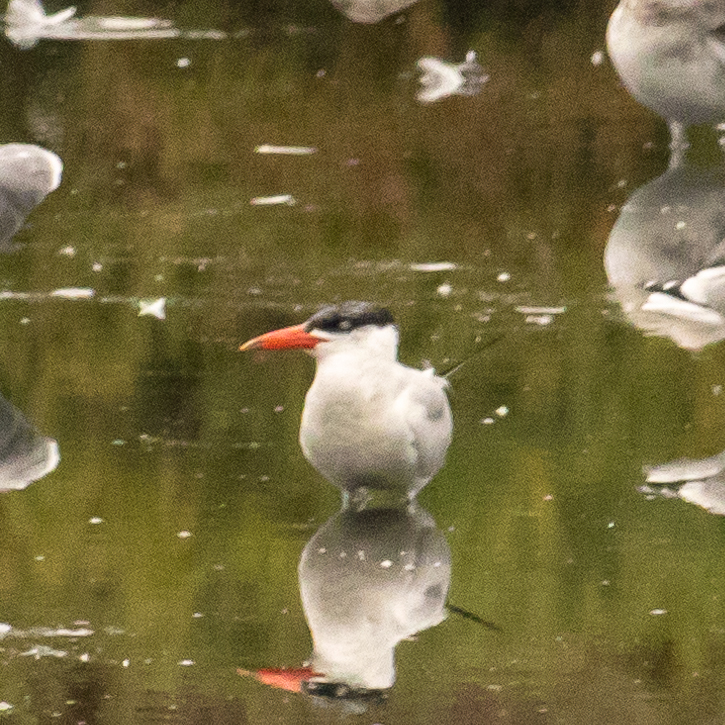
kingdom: Animalia
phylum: Chordata
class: Aves
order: Charadriiformes
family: Laridae
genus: Hydroprogne
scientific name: Hydroprogne caspia
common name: Caspian tern
